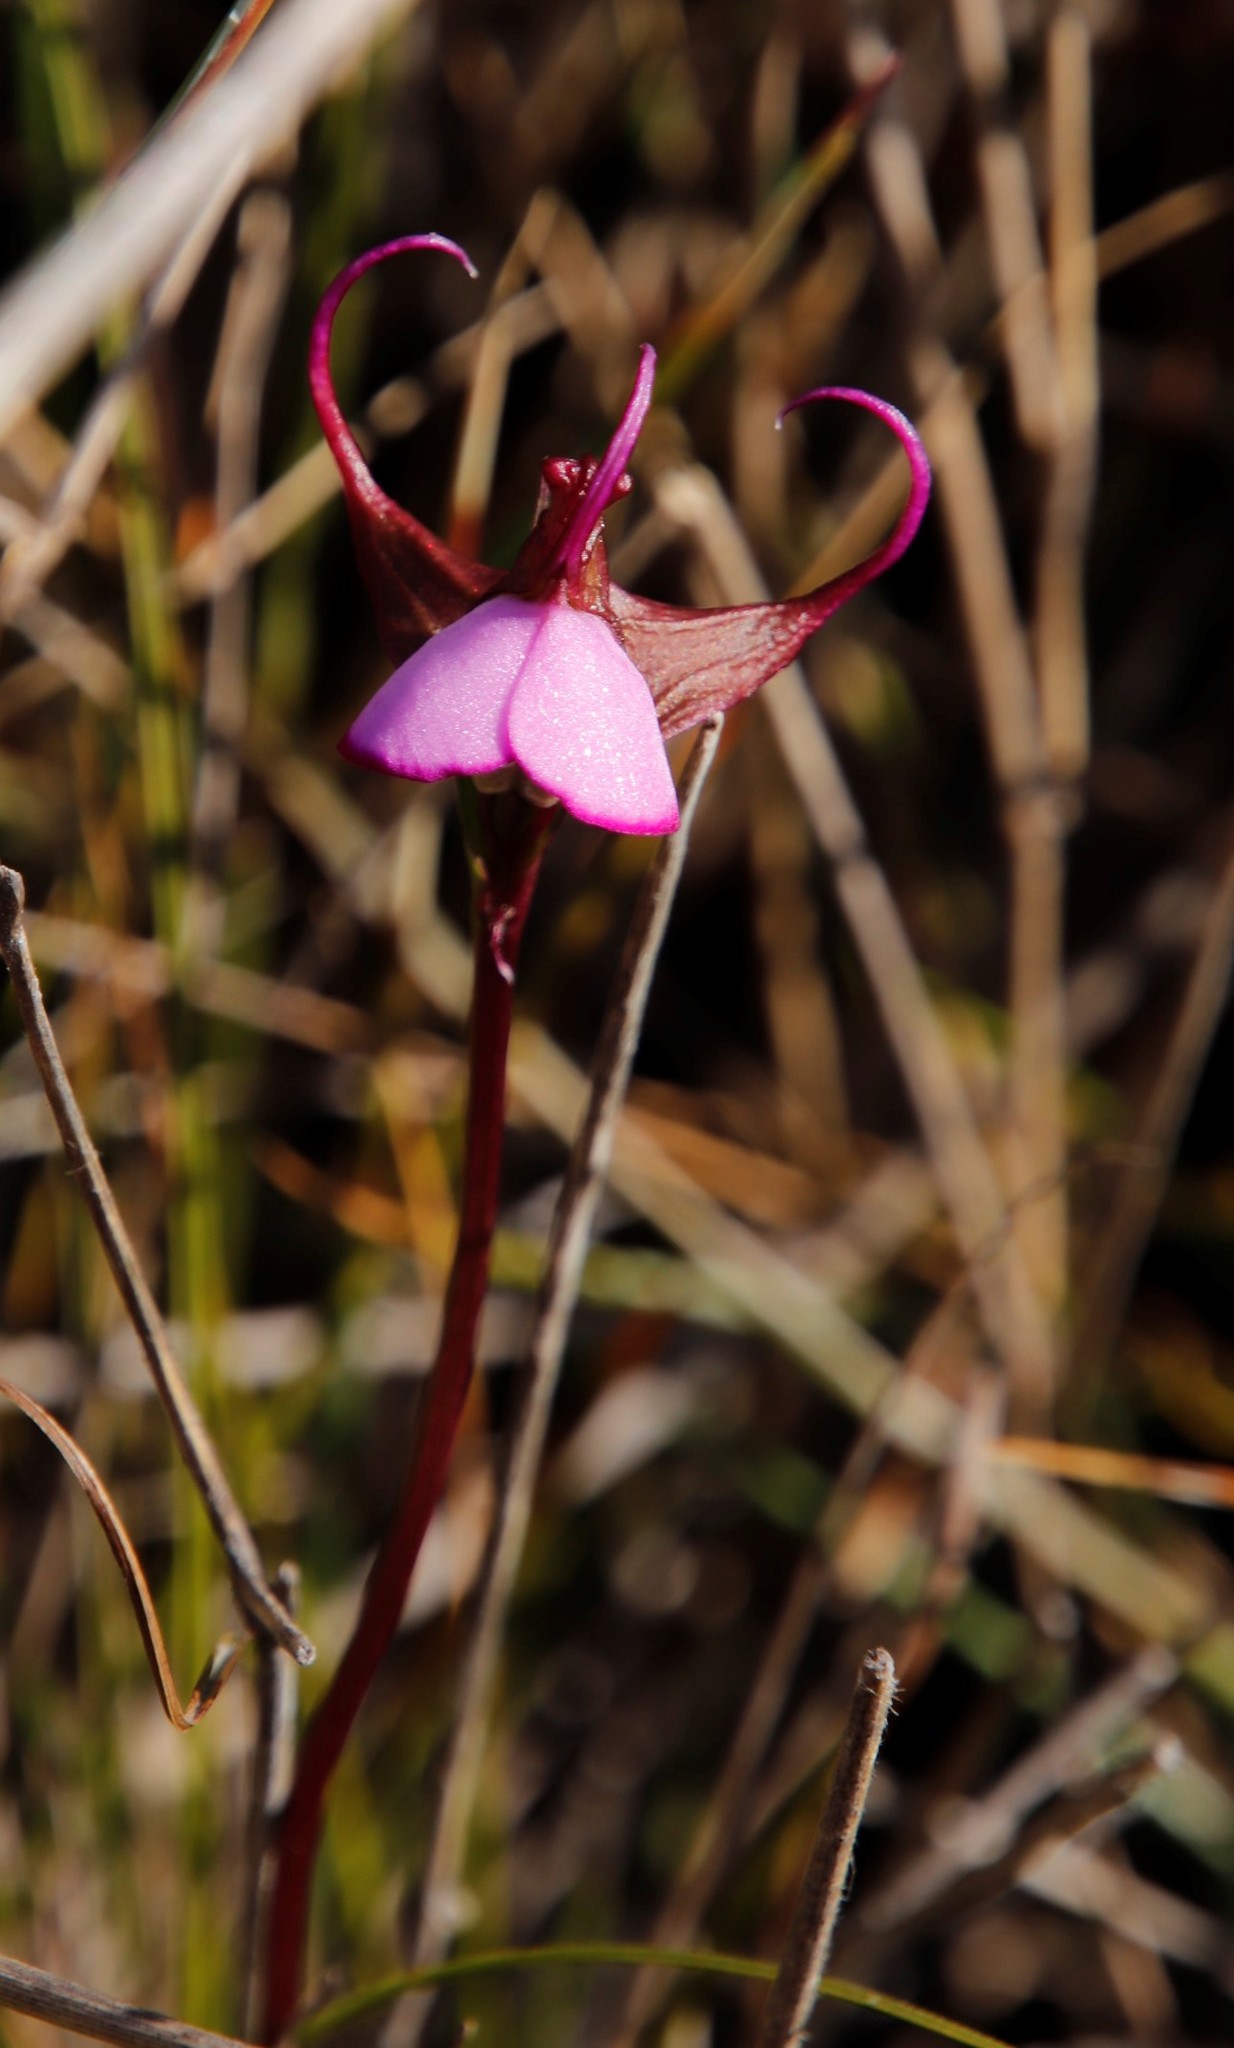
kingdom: Plantae
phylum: Tracheophyta
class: Liliopsida
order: Asparagales
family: Orchidaceae
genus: Disperis
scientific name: Disperis capensis
